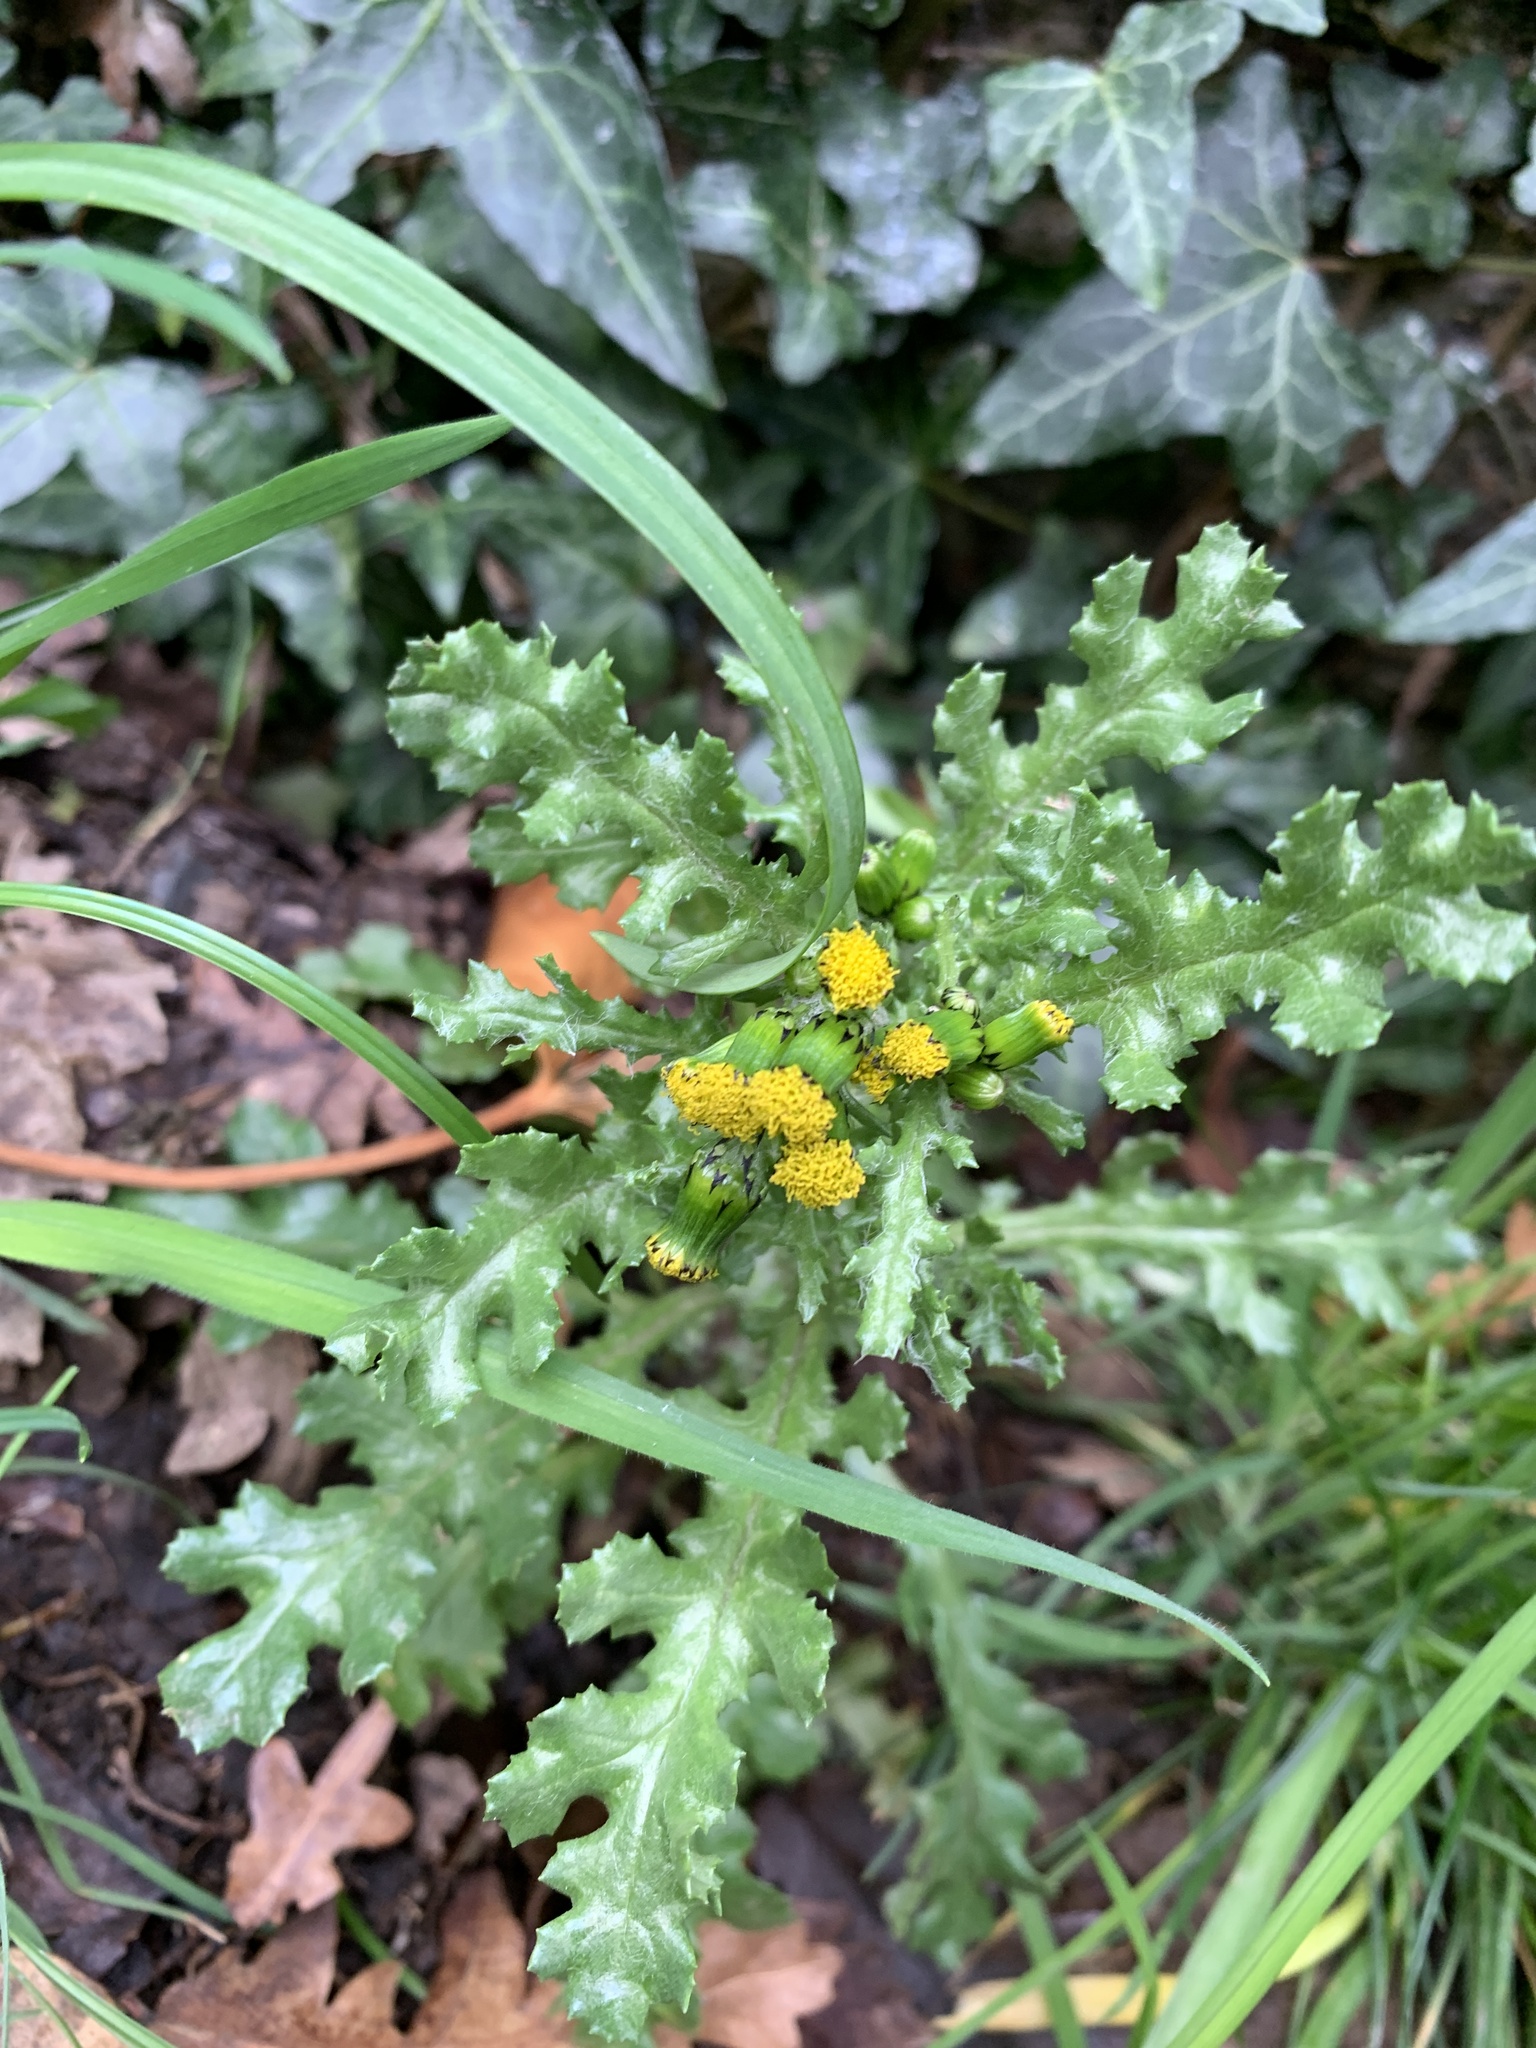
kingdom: Plantae
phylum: Tracheophyta
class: Magnoliopsida
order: Asterales
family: Asteraceae
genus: Senecio
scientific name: Senecio vulgaris
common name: Old-man-in-the-spring
